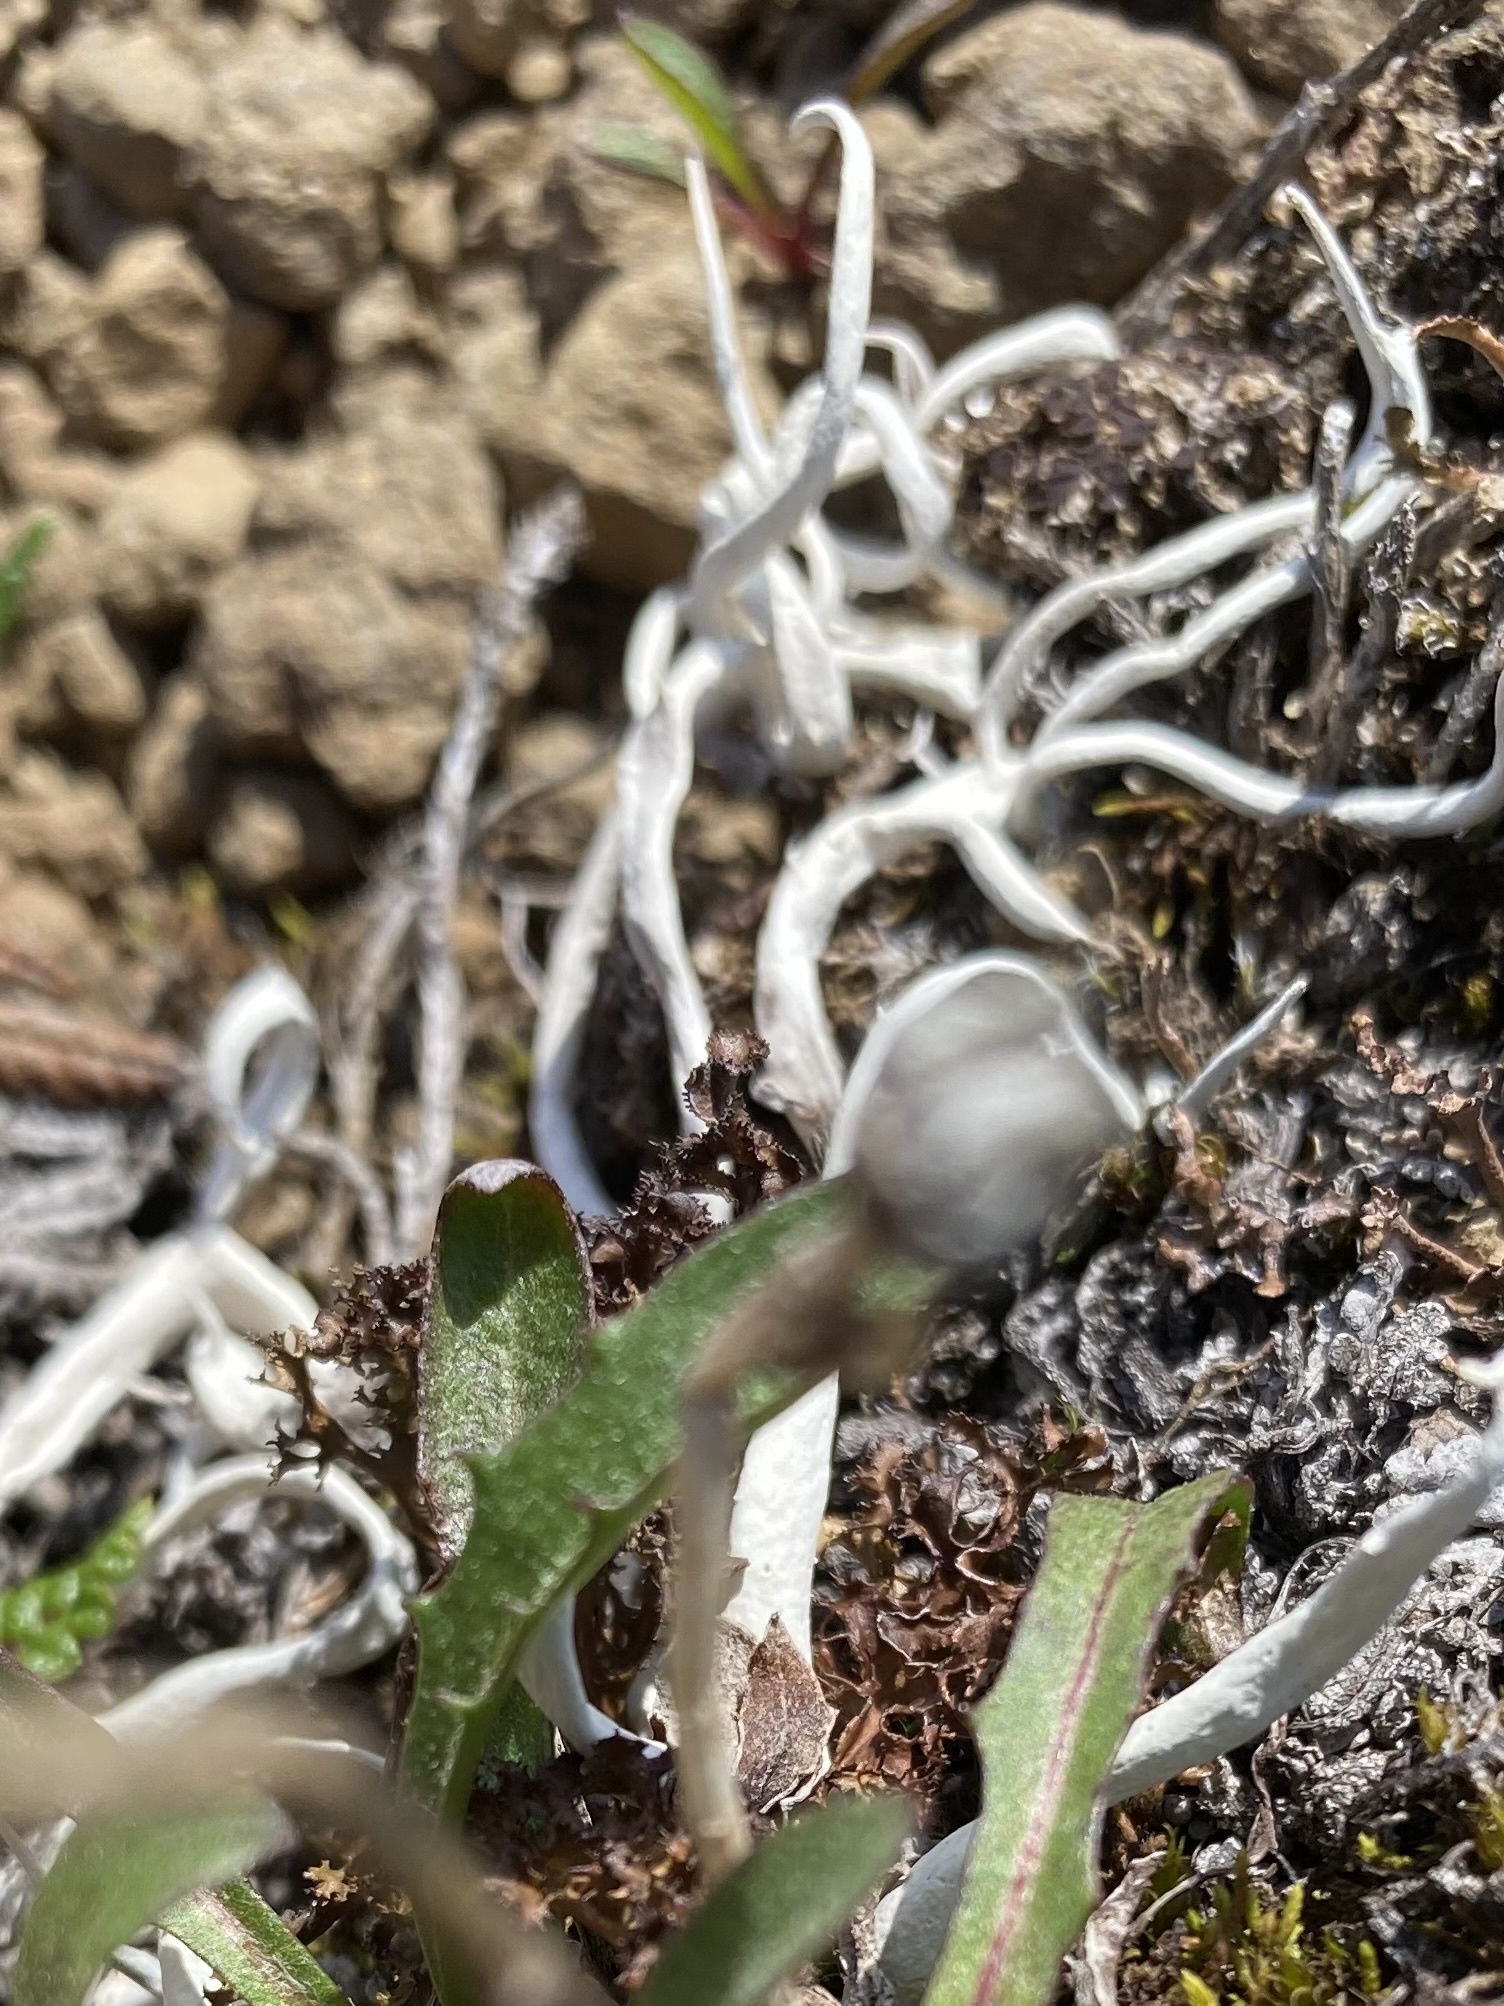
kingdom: Fungi
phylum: Ascomycota
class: Lecanoromycetes
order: Pertusariales
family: Icmadophilaceae
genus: Thamnolia
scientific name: Thamnolia vermicularis
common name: Whiteworm lichen
